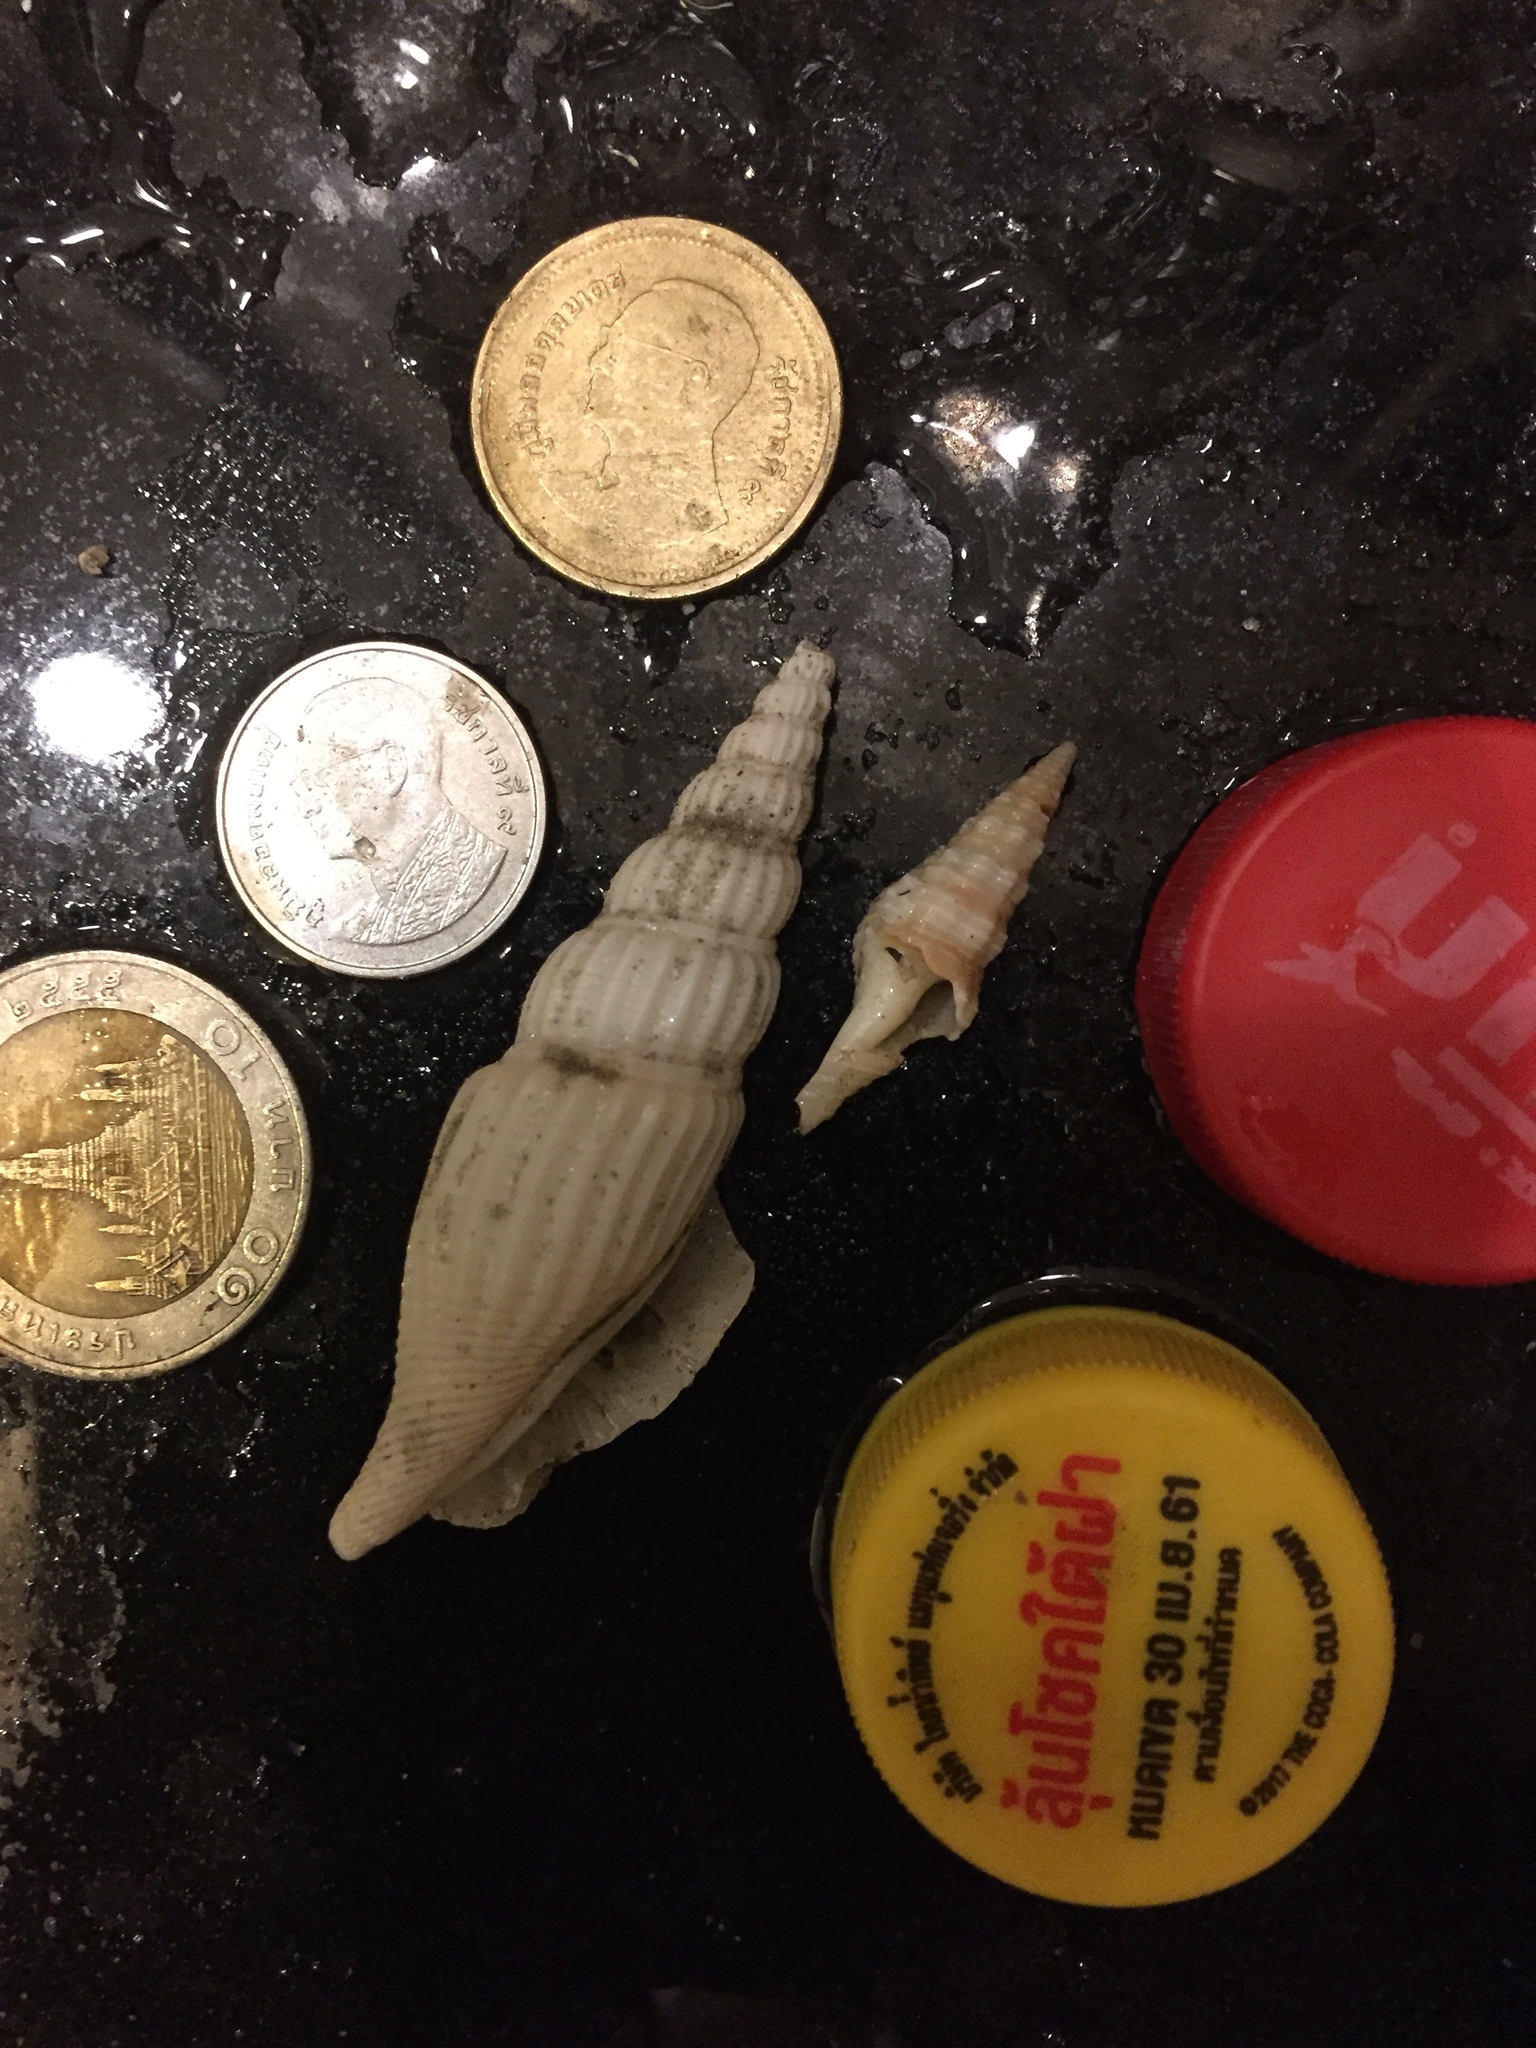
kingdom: Animalia
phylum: Mollusca
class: Gastropoda
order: Littorinimorpha
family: Strombidae
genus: Doxander
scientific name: Doxander vittatus
